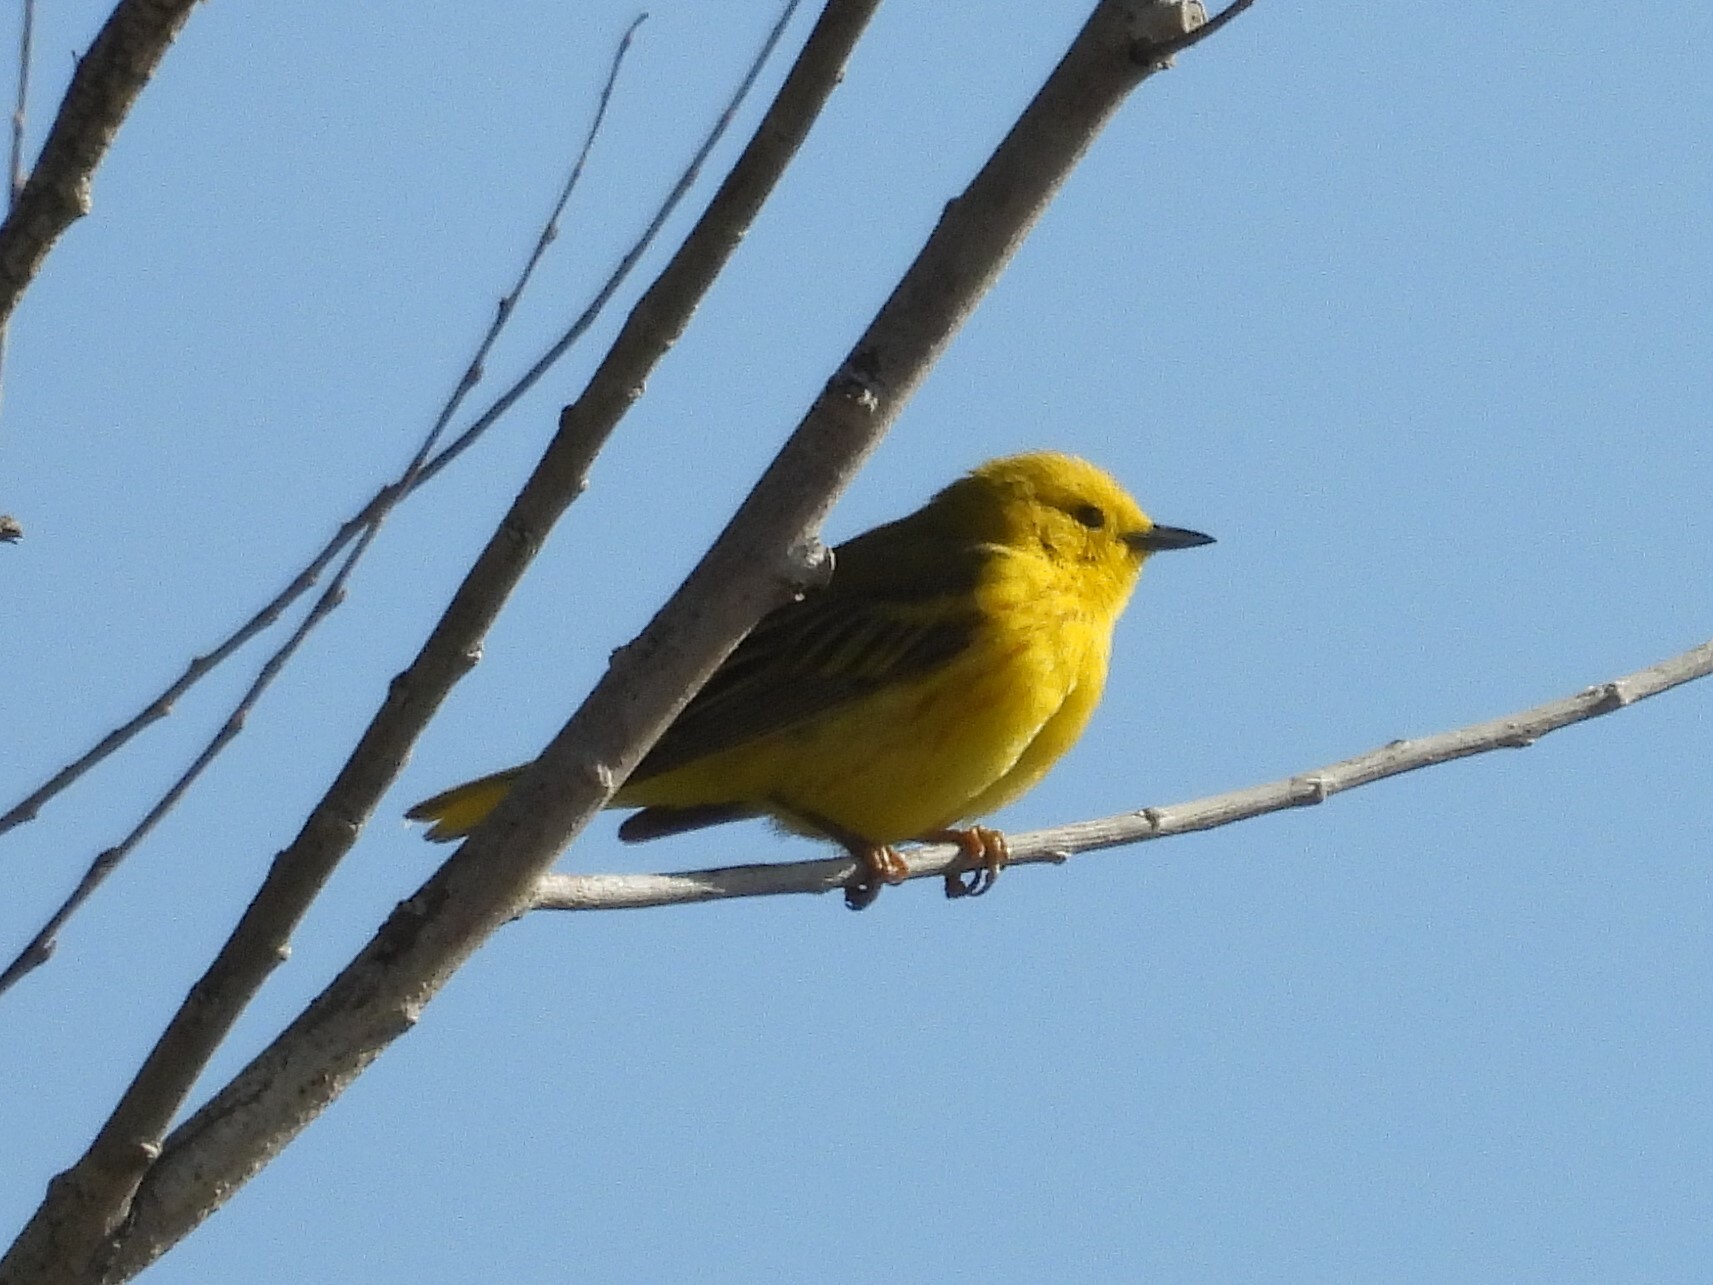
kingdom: Animalia
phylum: Chordata
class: Aves
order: Passeriformes
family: Parulidae
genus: Setophaga
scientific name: Setophaga petechia
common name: Yellow warbler
